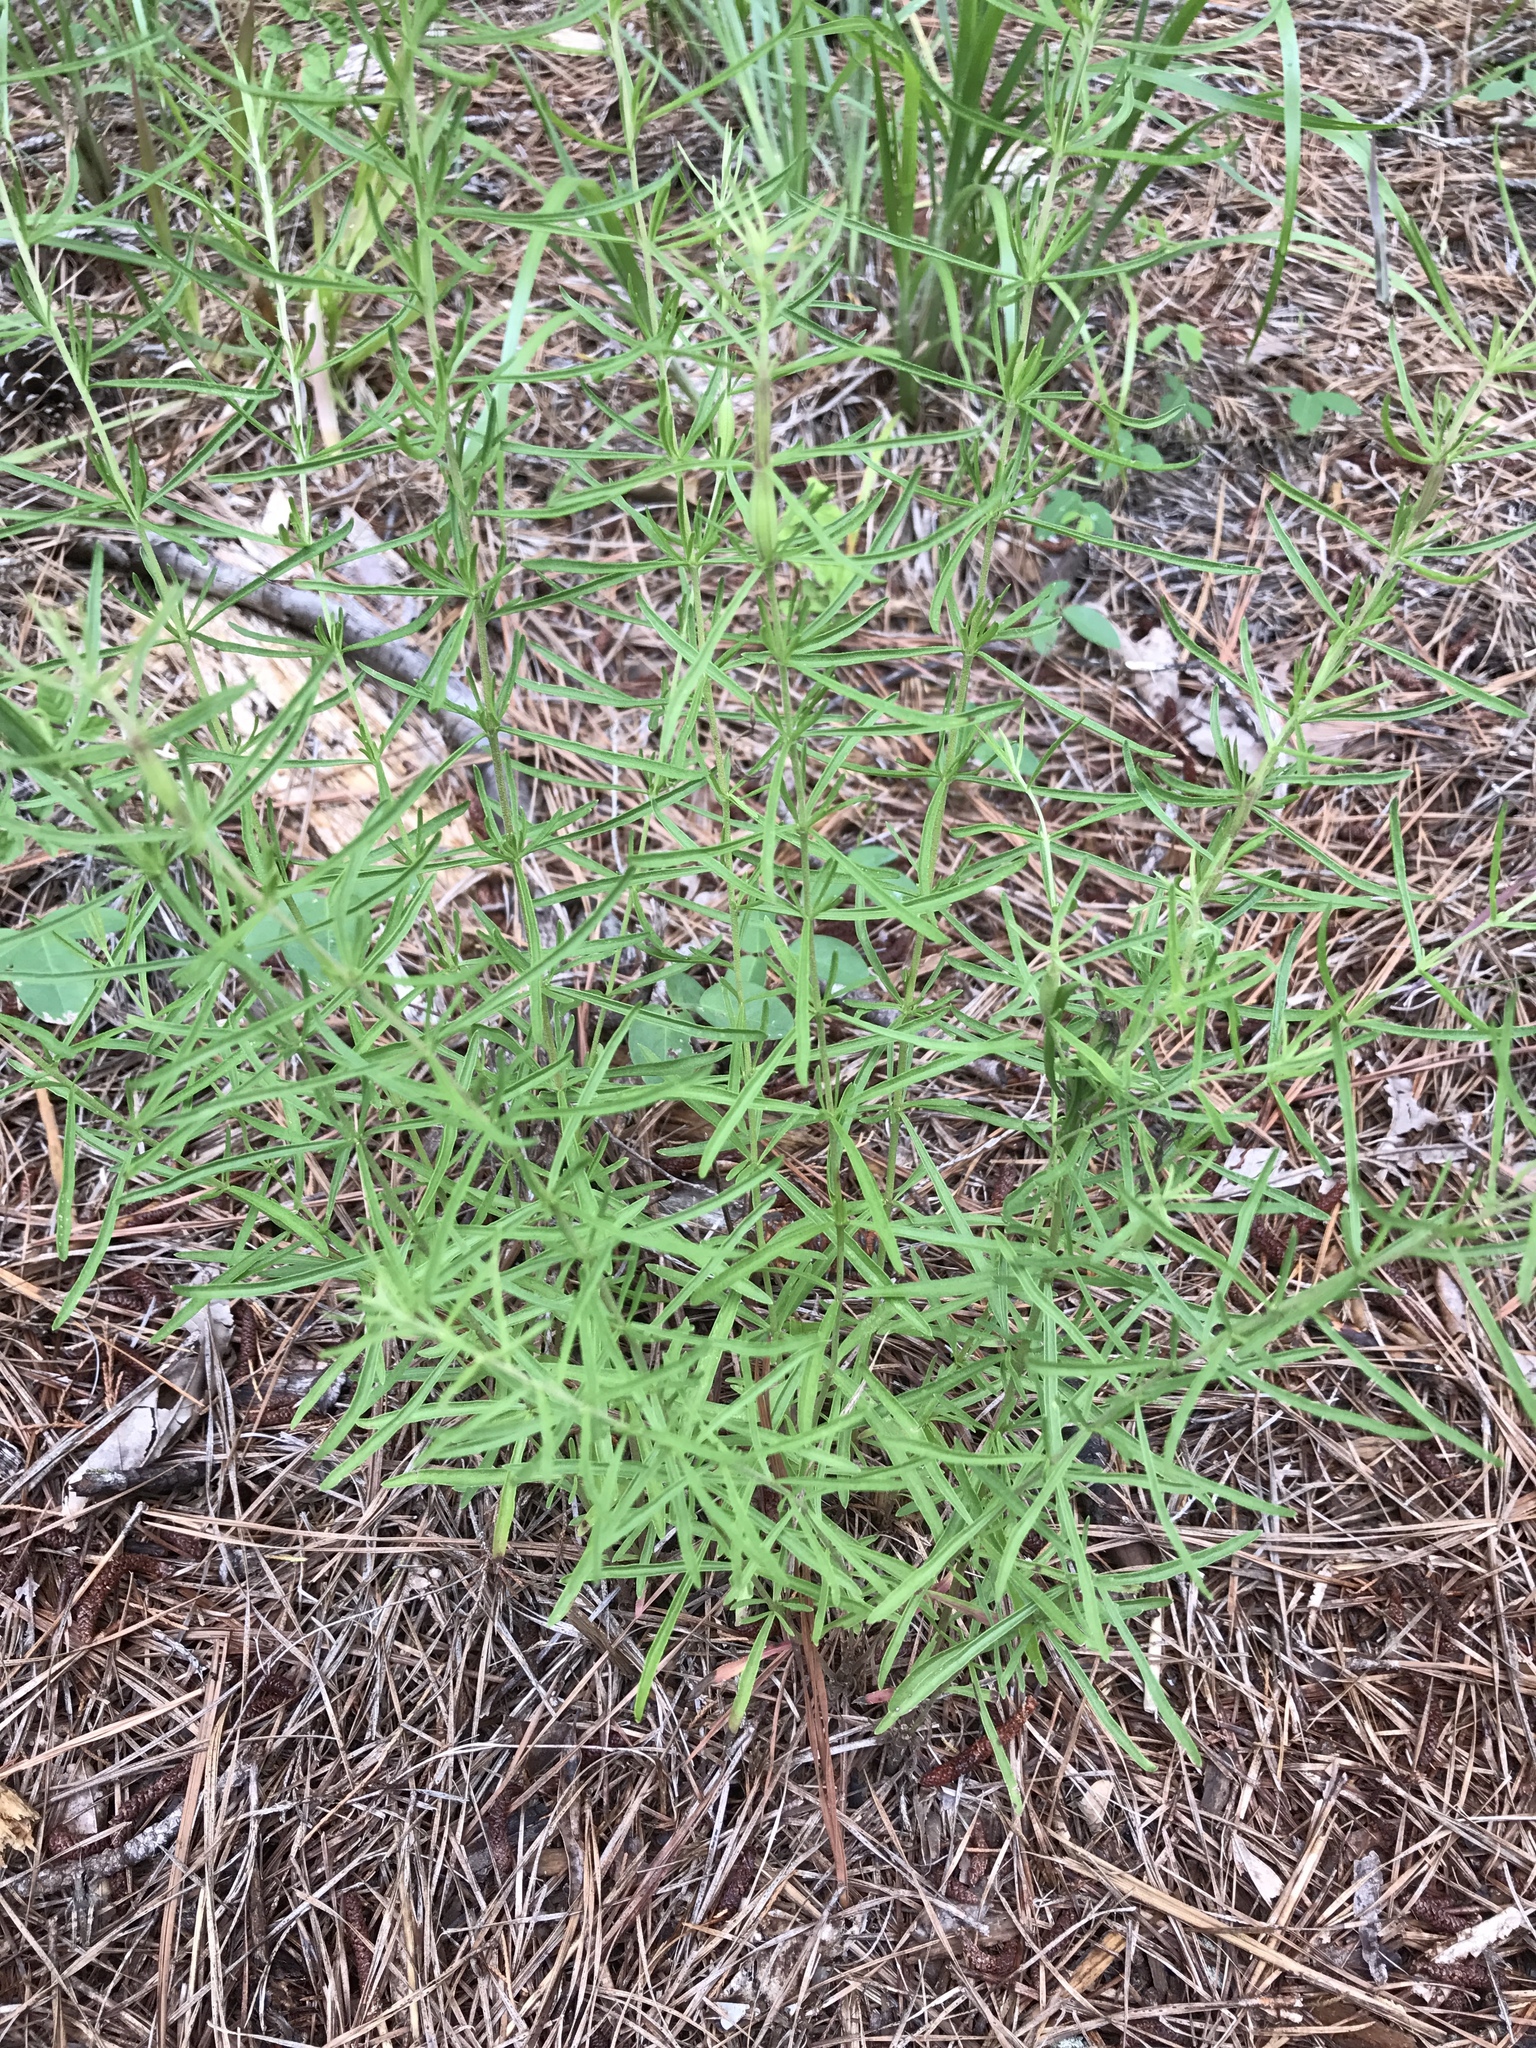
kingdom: Plantae
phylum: Tracheophyta
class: Magnoliopsida
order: Asterales
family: Asteraceae
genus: Eupatorium
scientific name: Eupatorium hyssopifolium
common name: Hyssop-leaf thoroughwort
